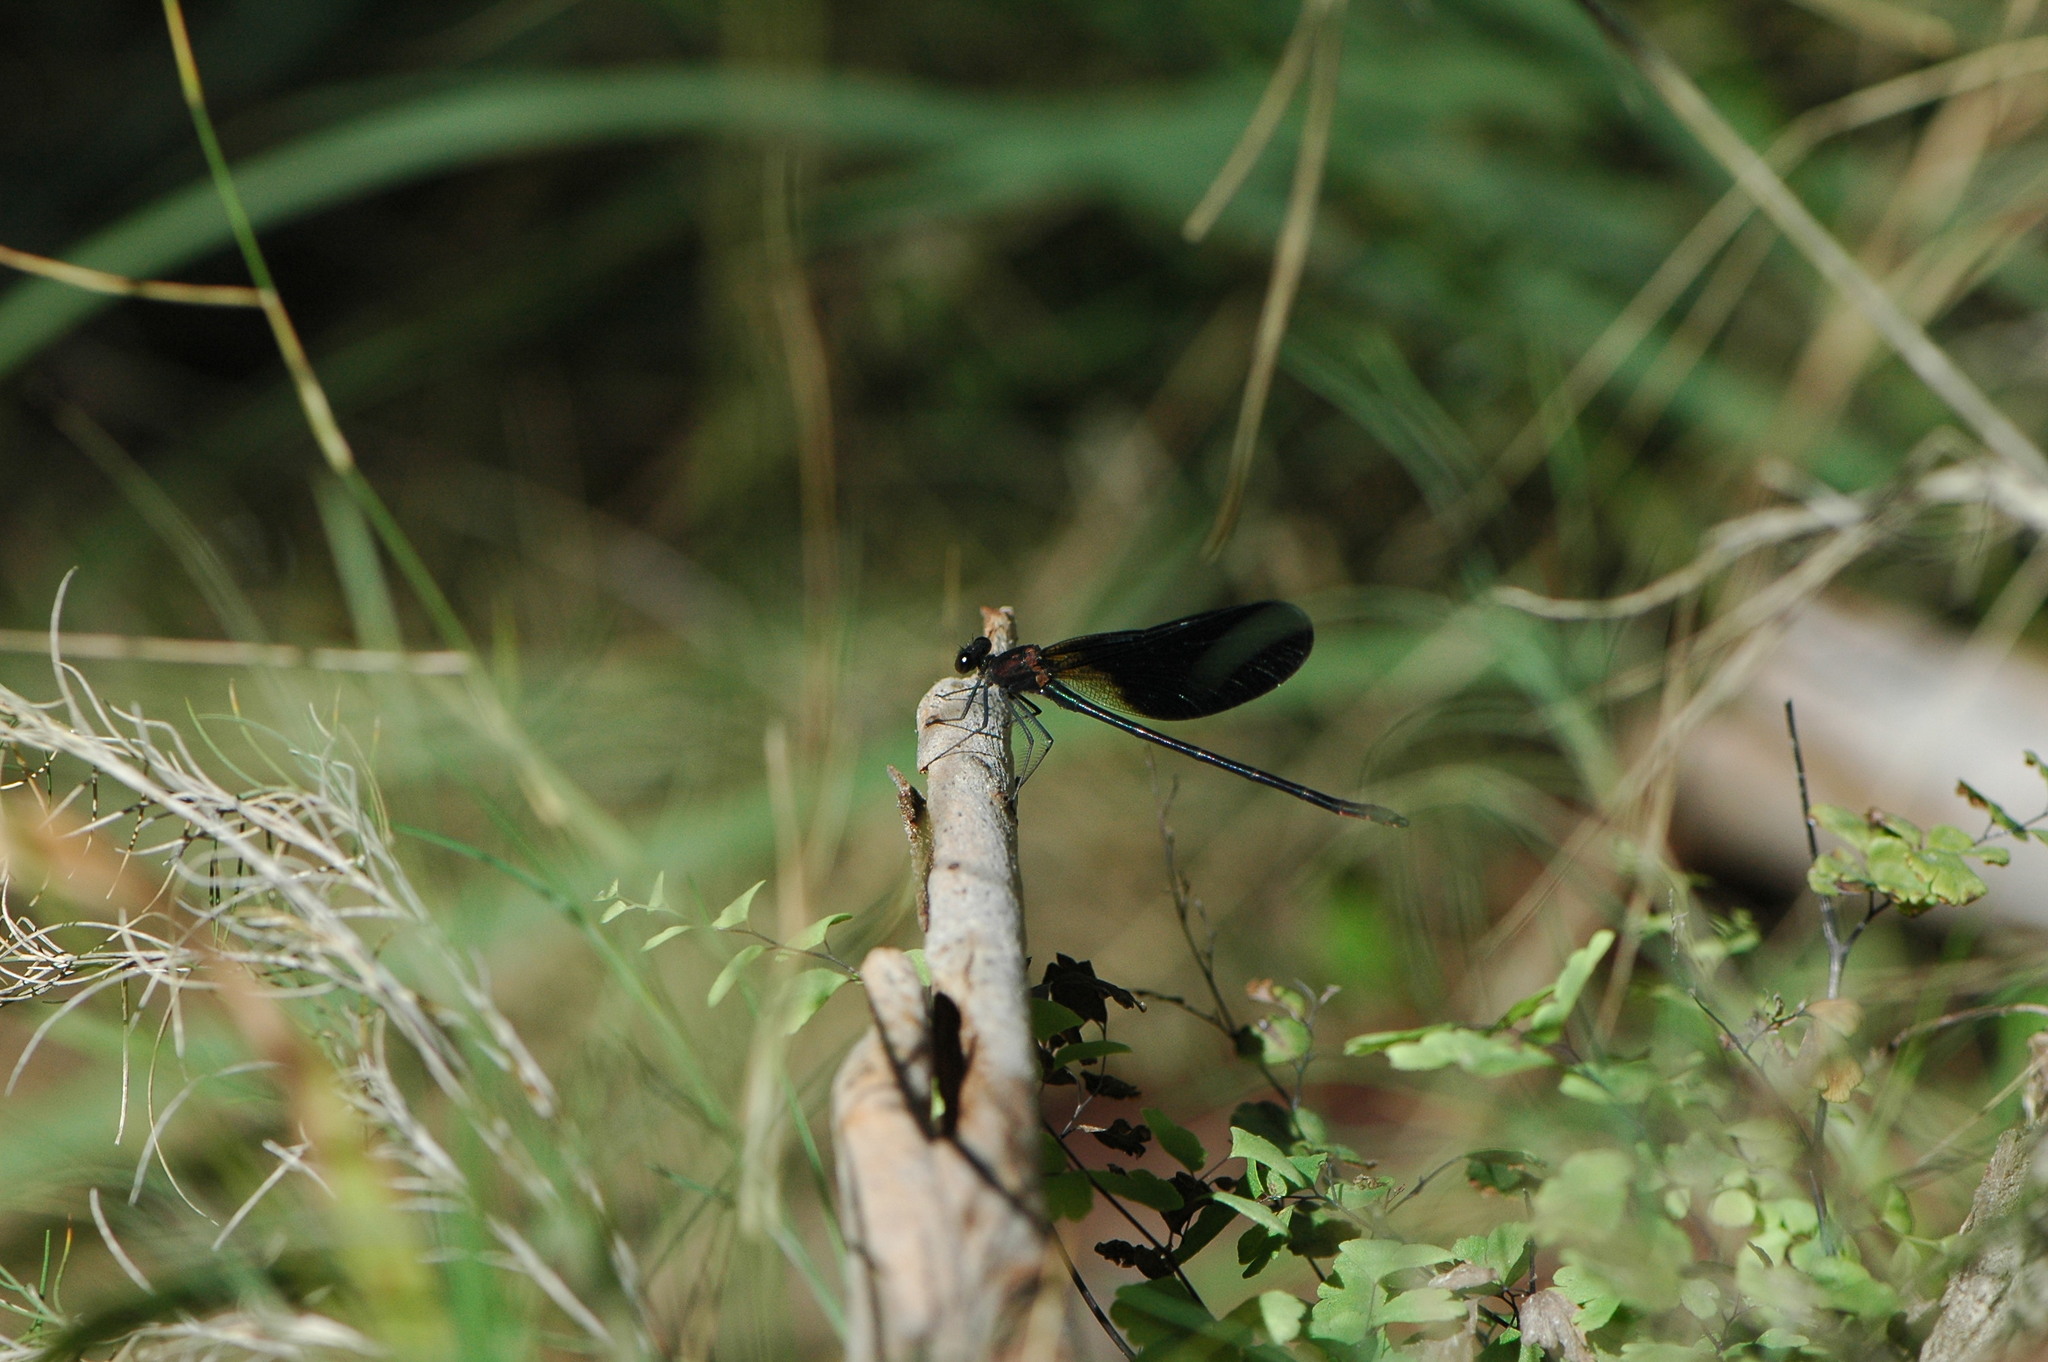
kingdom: Animalia
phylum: Arthropoda
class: Insecta
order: Odonata
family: Calopterygidae
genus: Calopteryx
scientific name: Calopteryx haemorrhoidalis
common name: Copper demoiselle
